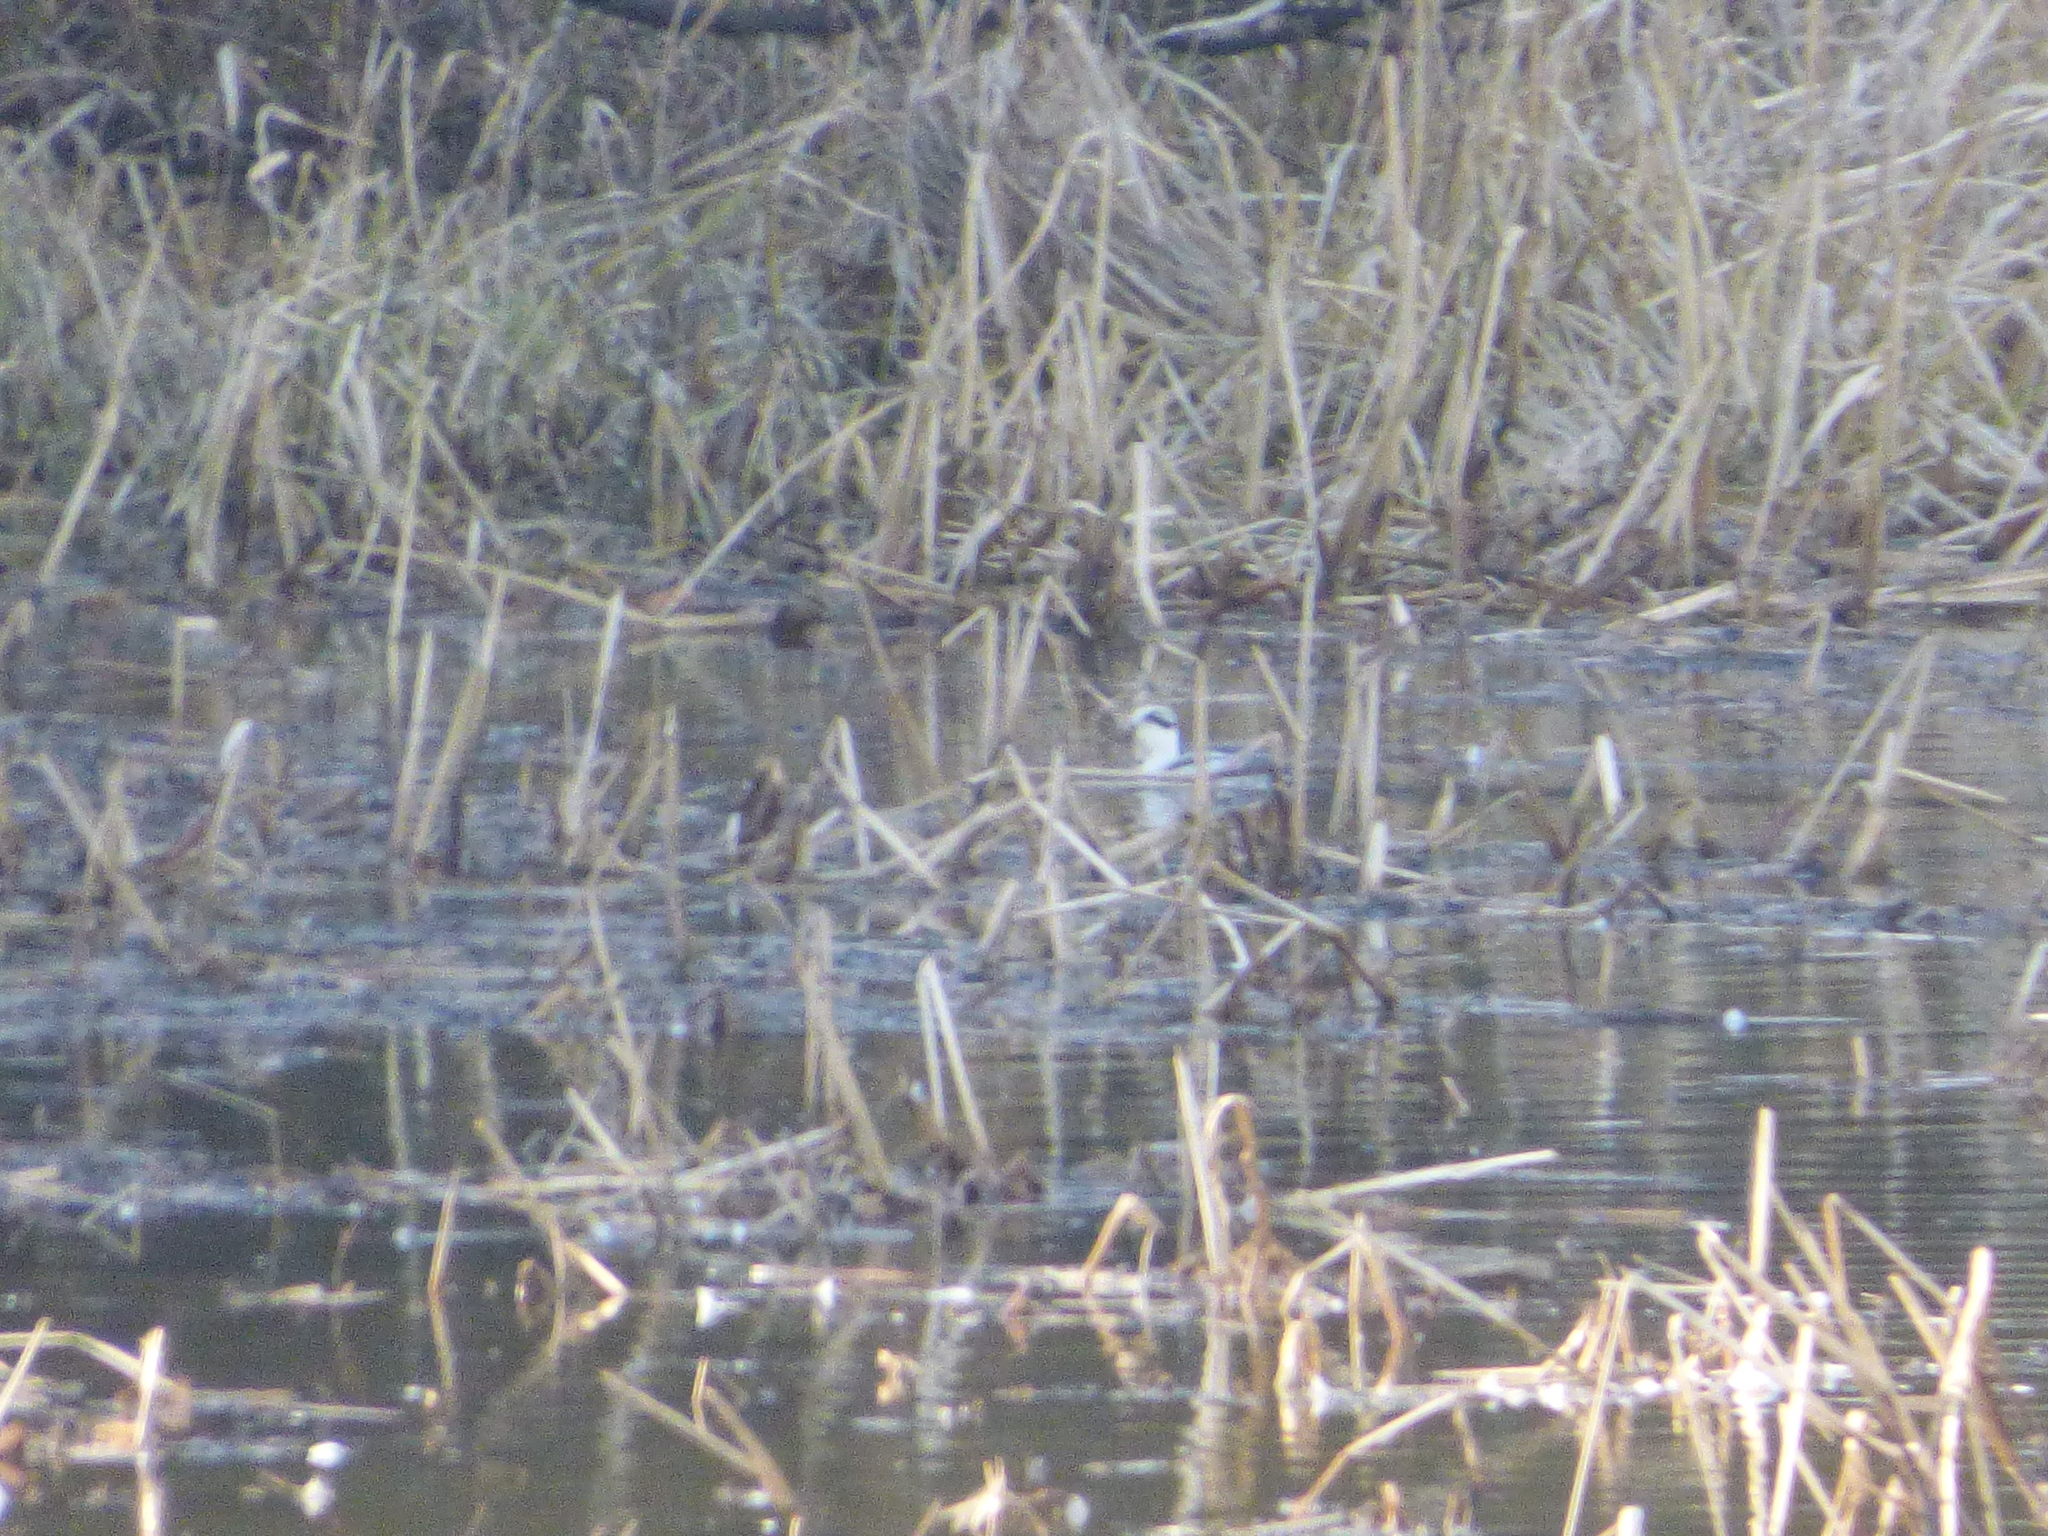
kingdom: Animalia
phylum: Chordata
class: Aves
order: Anseriformes
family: Anatidae
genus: Mergellus
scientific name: Mergellus albellus
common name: Smew
